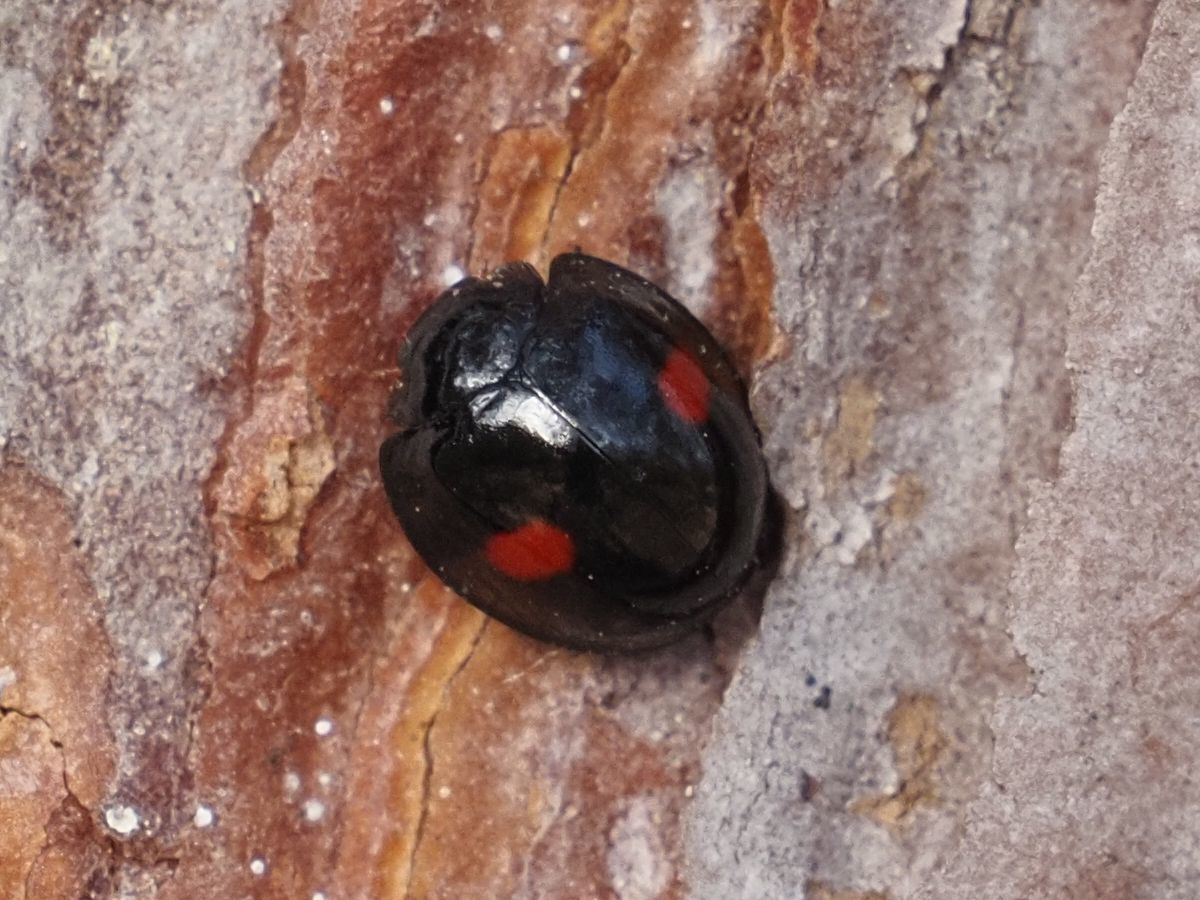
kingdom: Animalia
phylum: Arthropoda
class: Insecta
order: Coleoptera
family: Coccinellidae
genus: Chilocorus
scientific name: Chilocorus renipustulatus
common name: Kidney-spot ladybird
